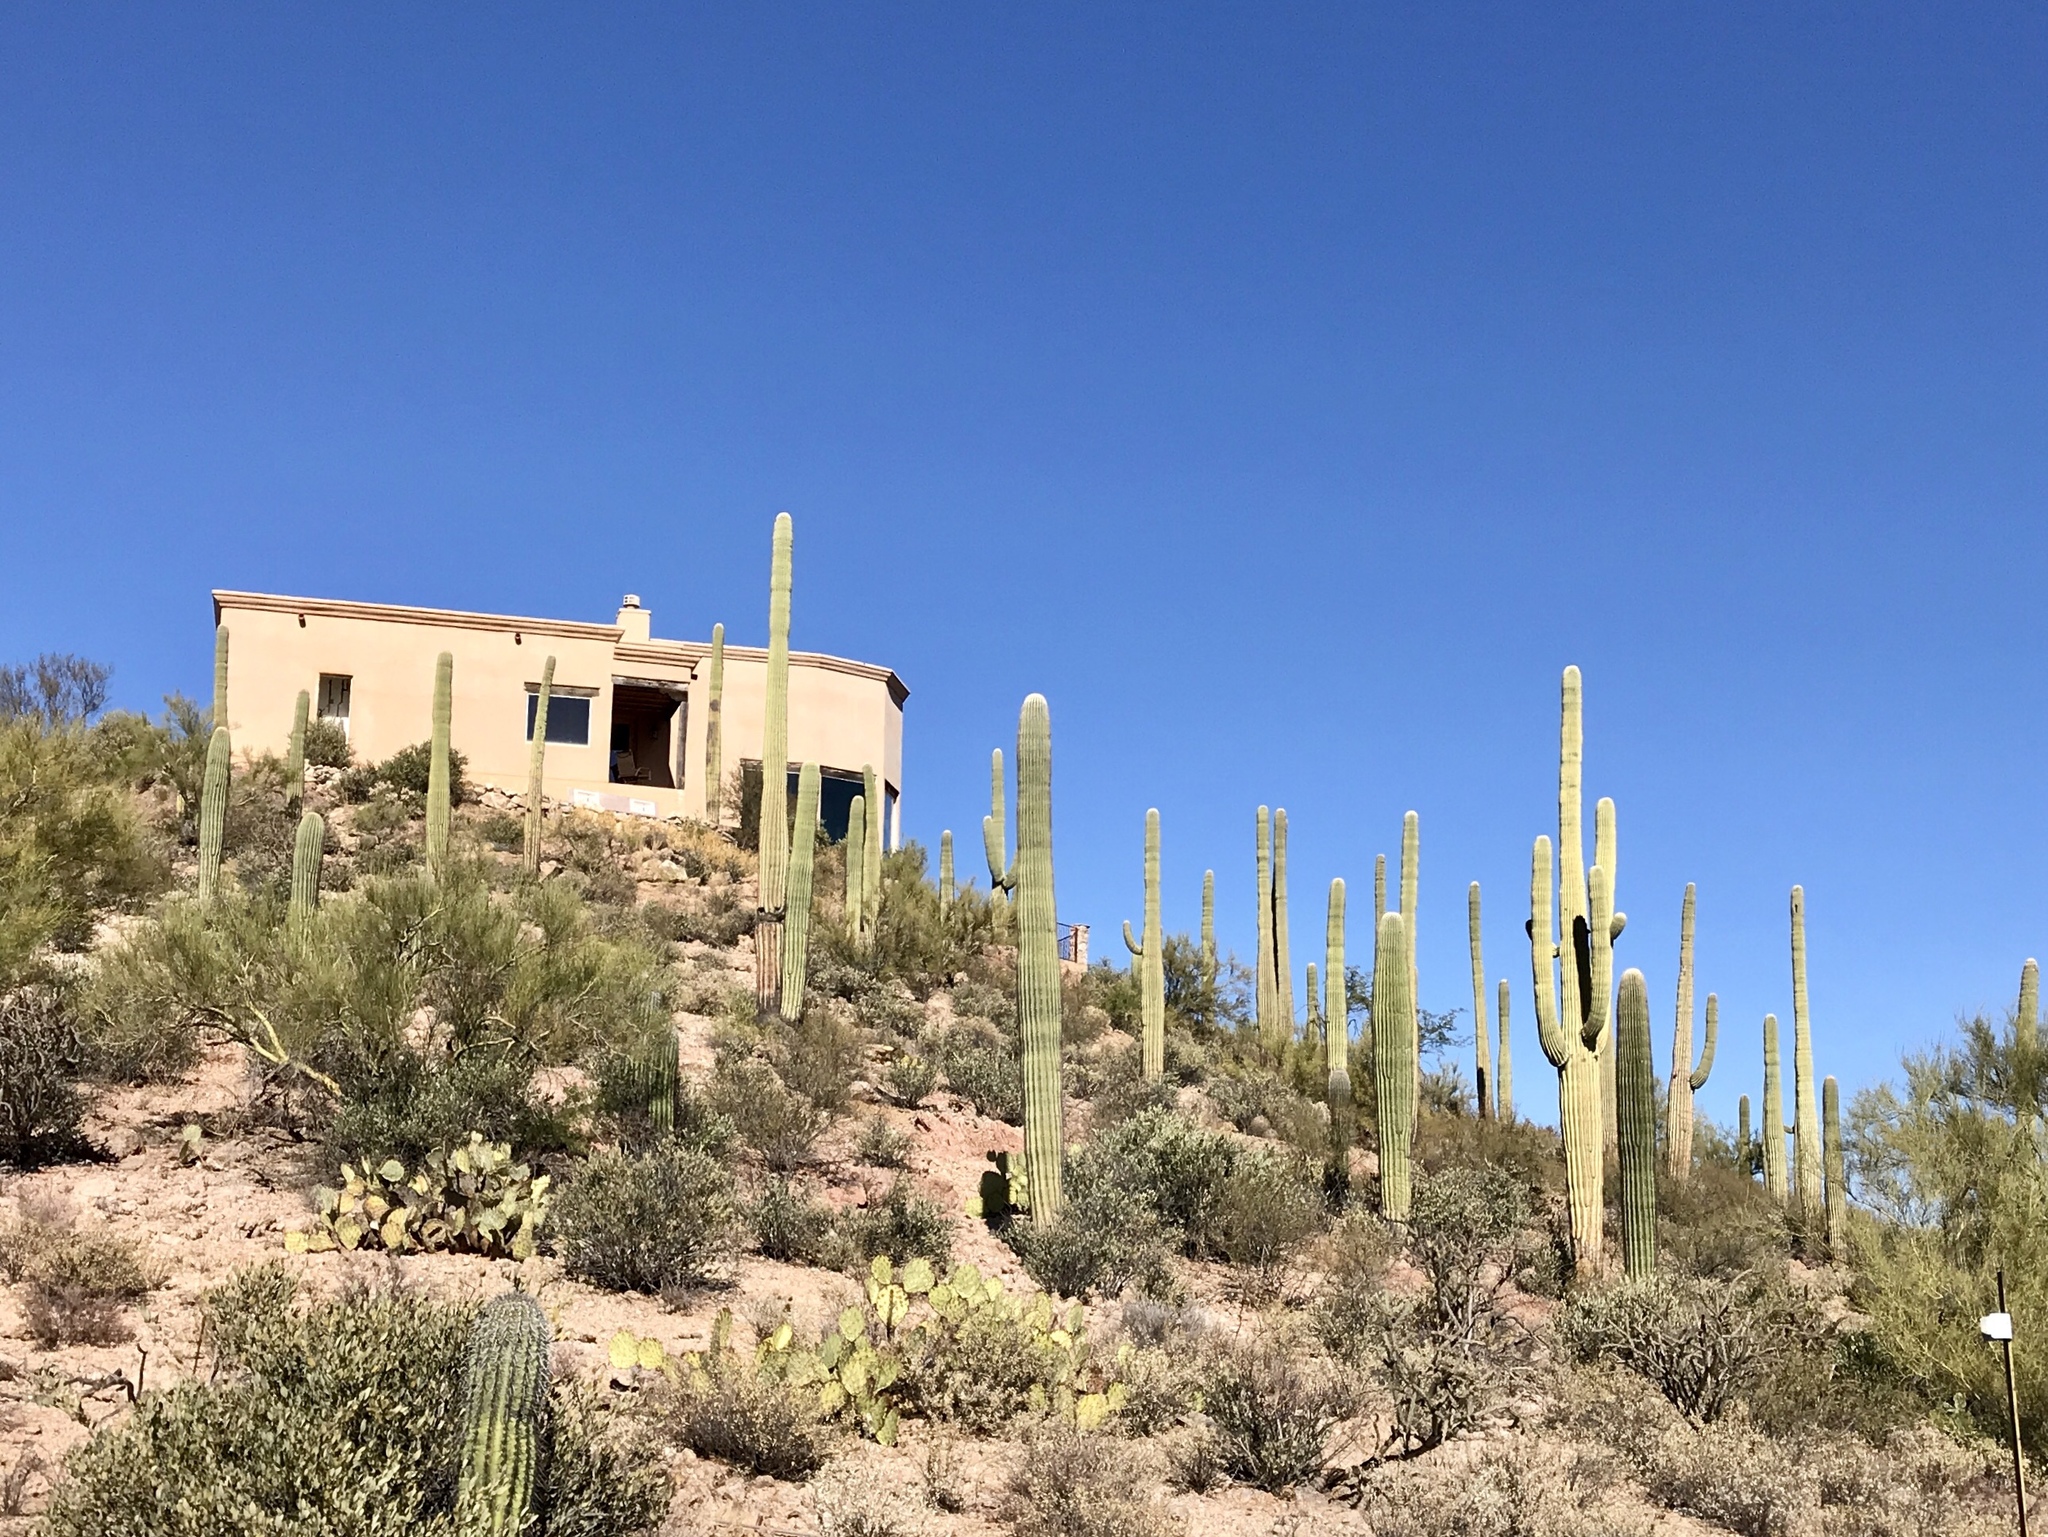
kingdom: Plantae
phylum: Tracheophyta
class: Magnoliopsida
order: Caryophyllales
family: Cactaceae
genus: Carnegiea
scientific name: Carnegiea gigantea
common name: Saguaro
